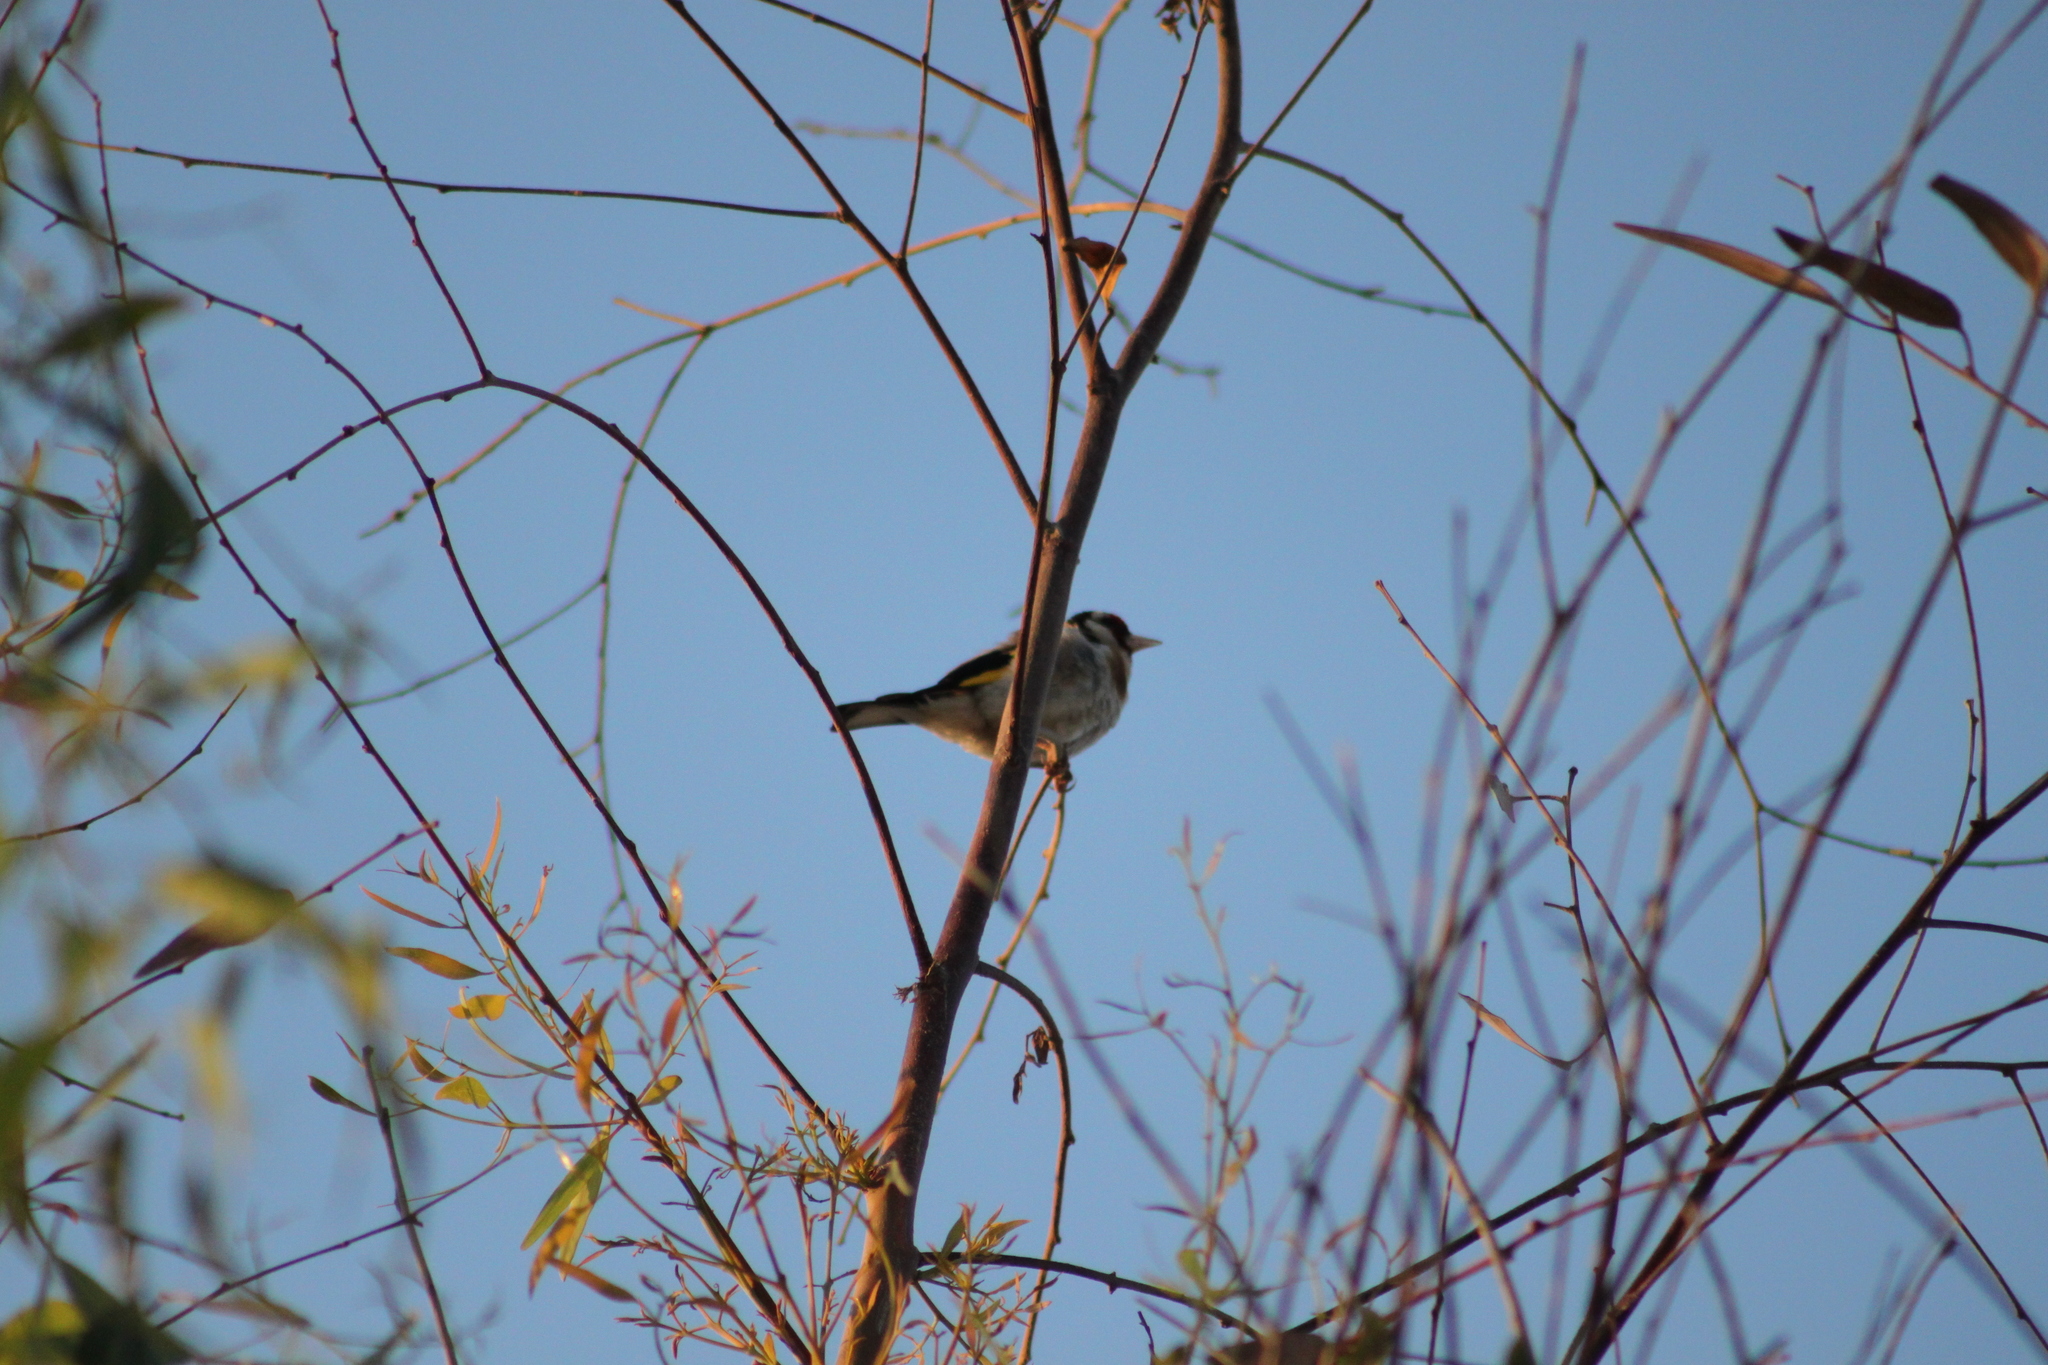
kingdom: Animalia
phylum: Chordata
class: Aves
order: Passeriformes
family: Fringillidae
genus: Carduelis
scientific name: Carduelis carduelis
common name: European goldfinch
